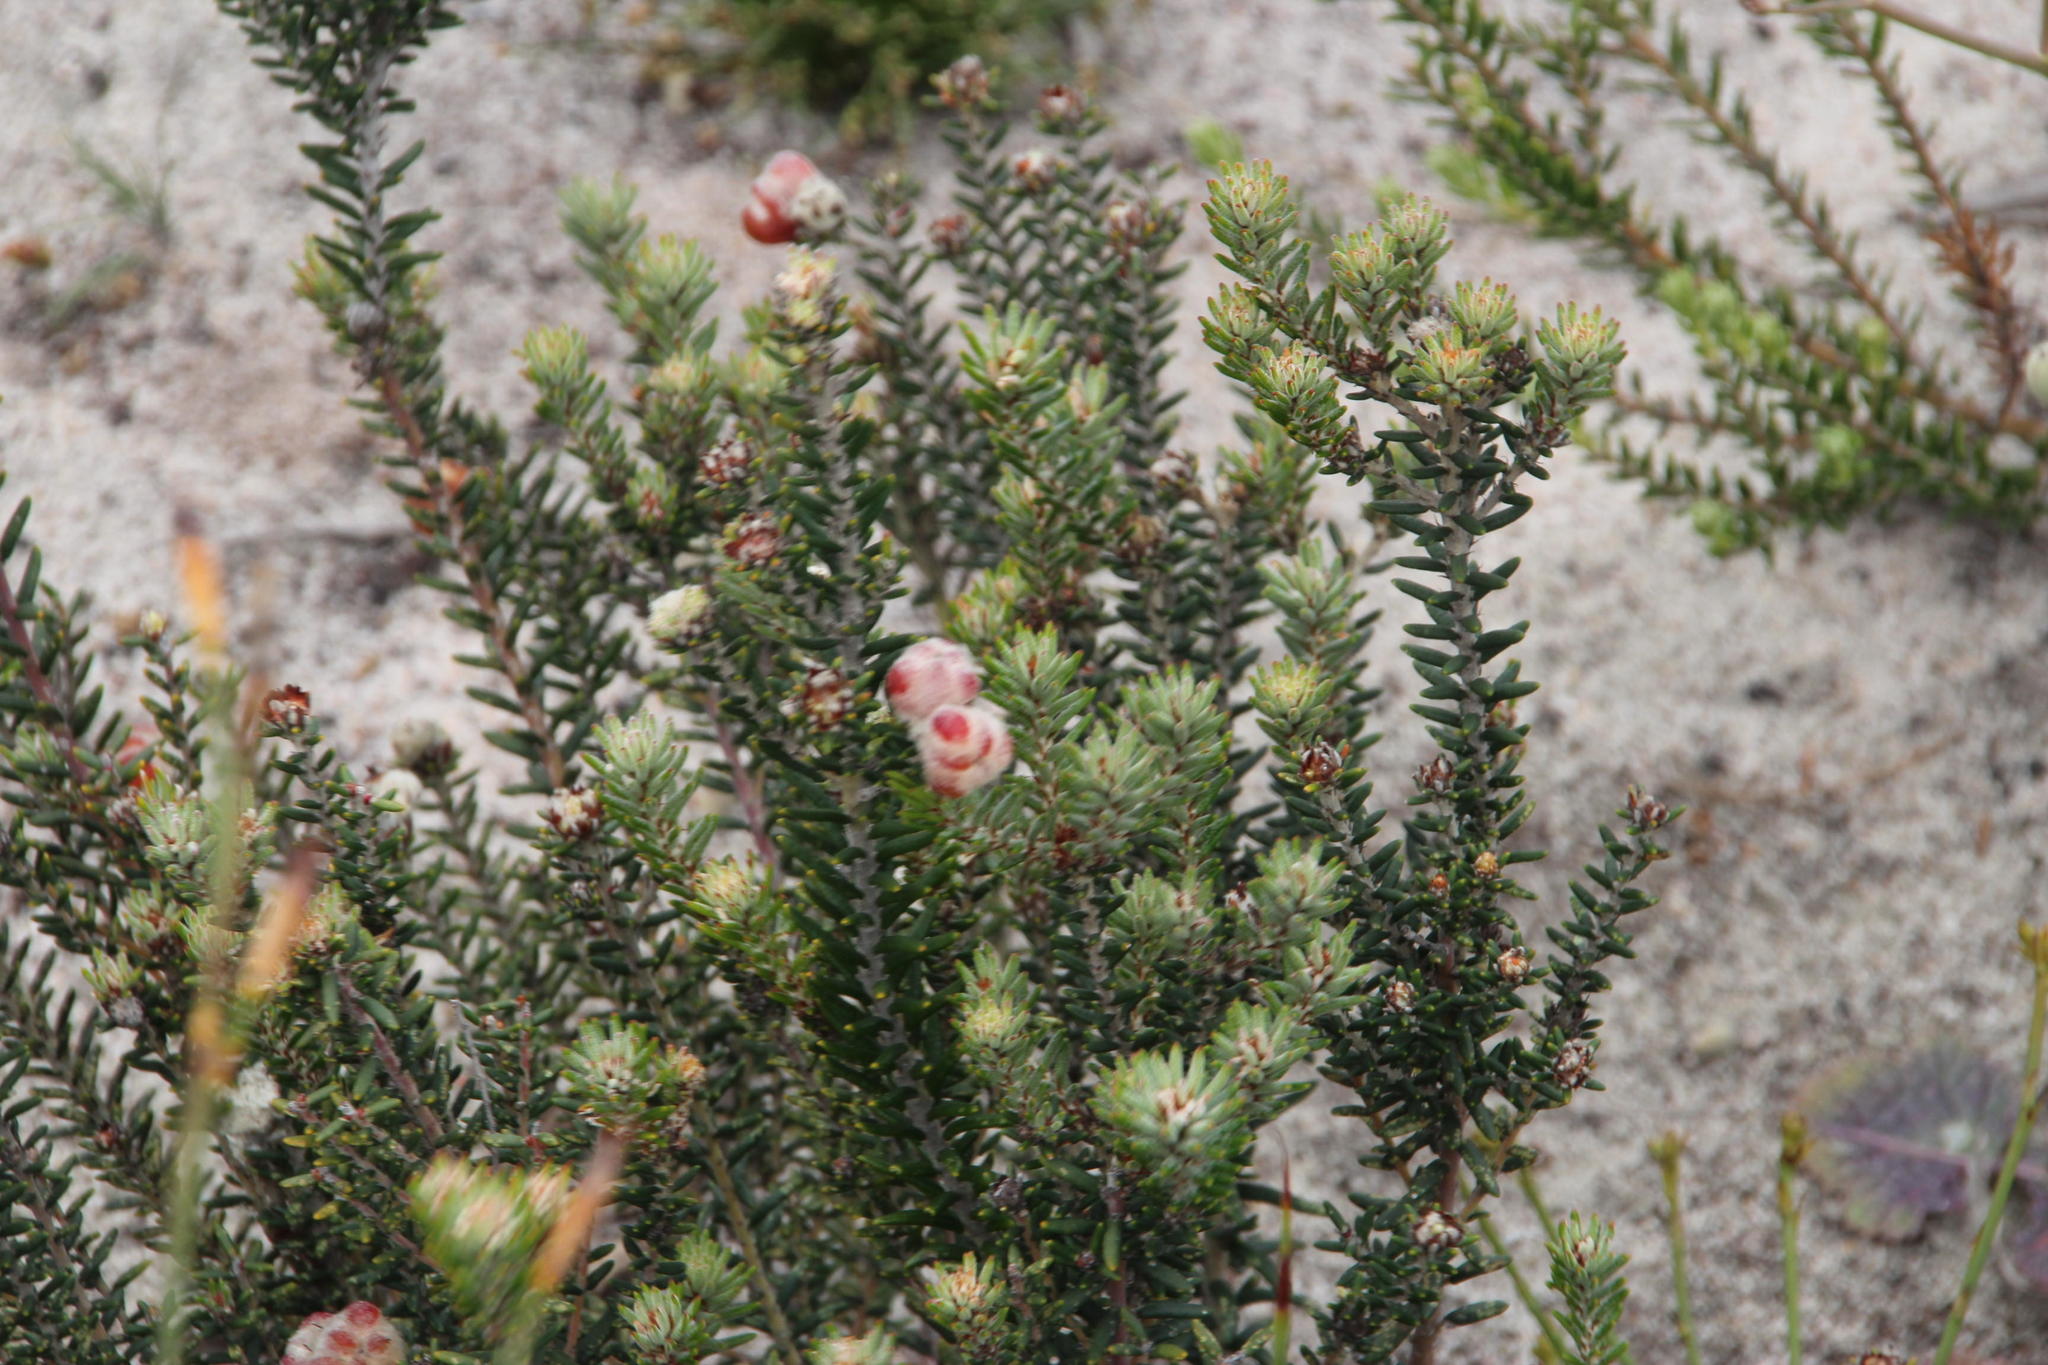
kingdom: Plantae
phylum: Tracheophyta
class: Magnoliopsida
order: Rosales
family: Rhamnaceae
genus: Trichocephalus
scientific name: Trichocephalus stipularis
